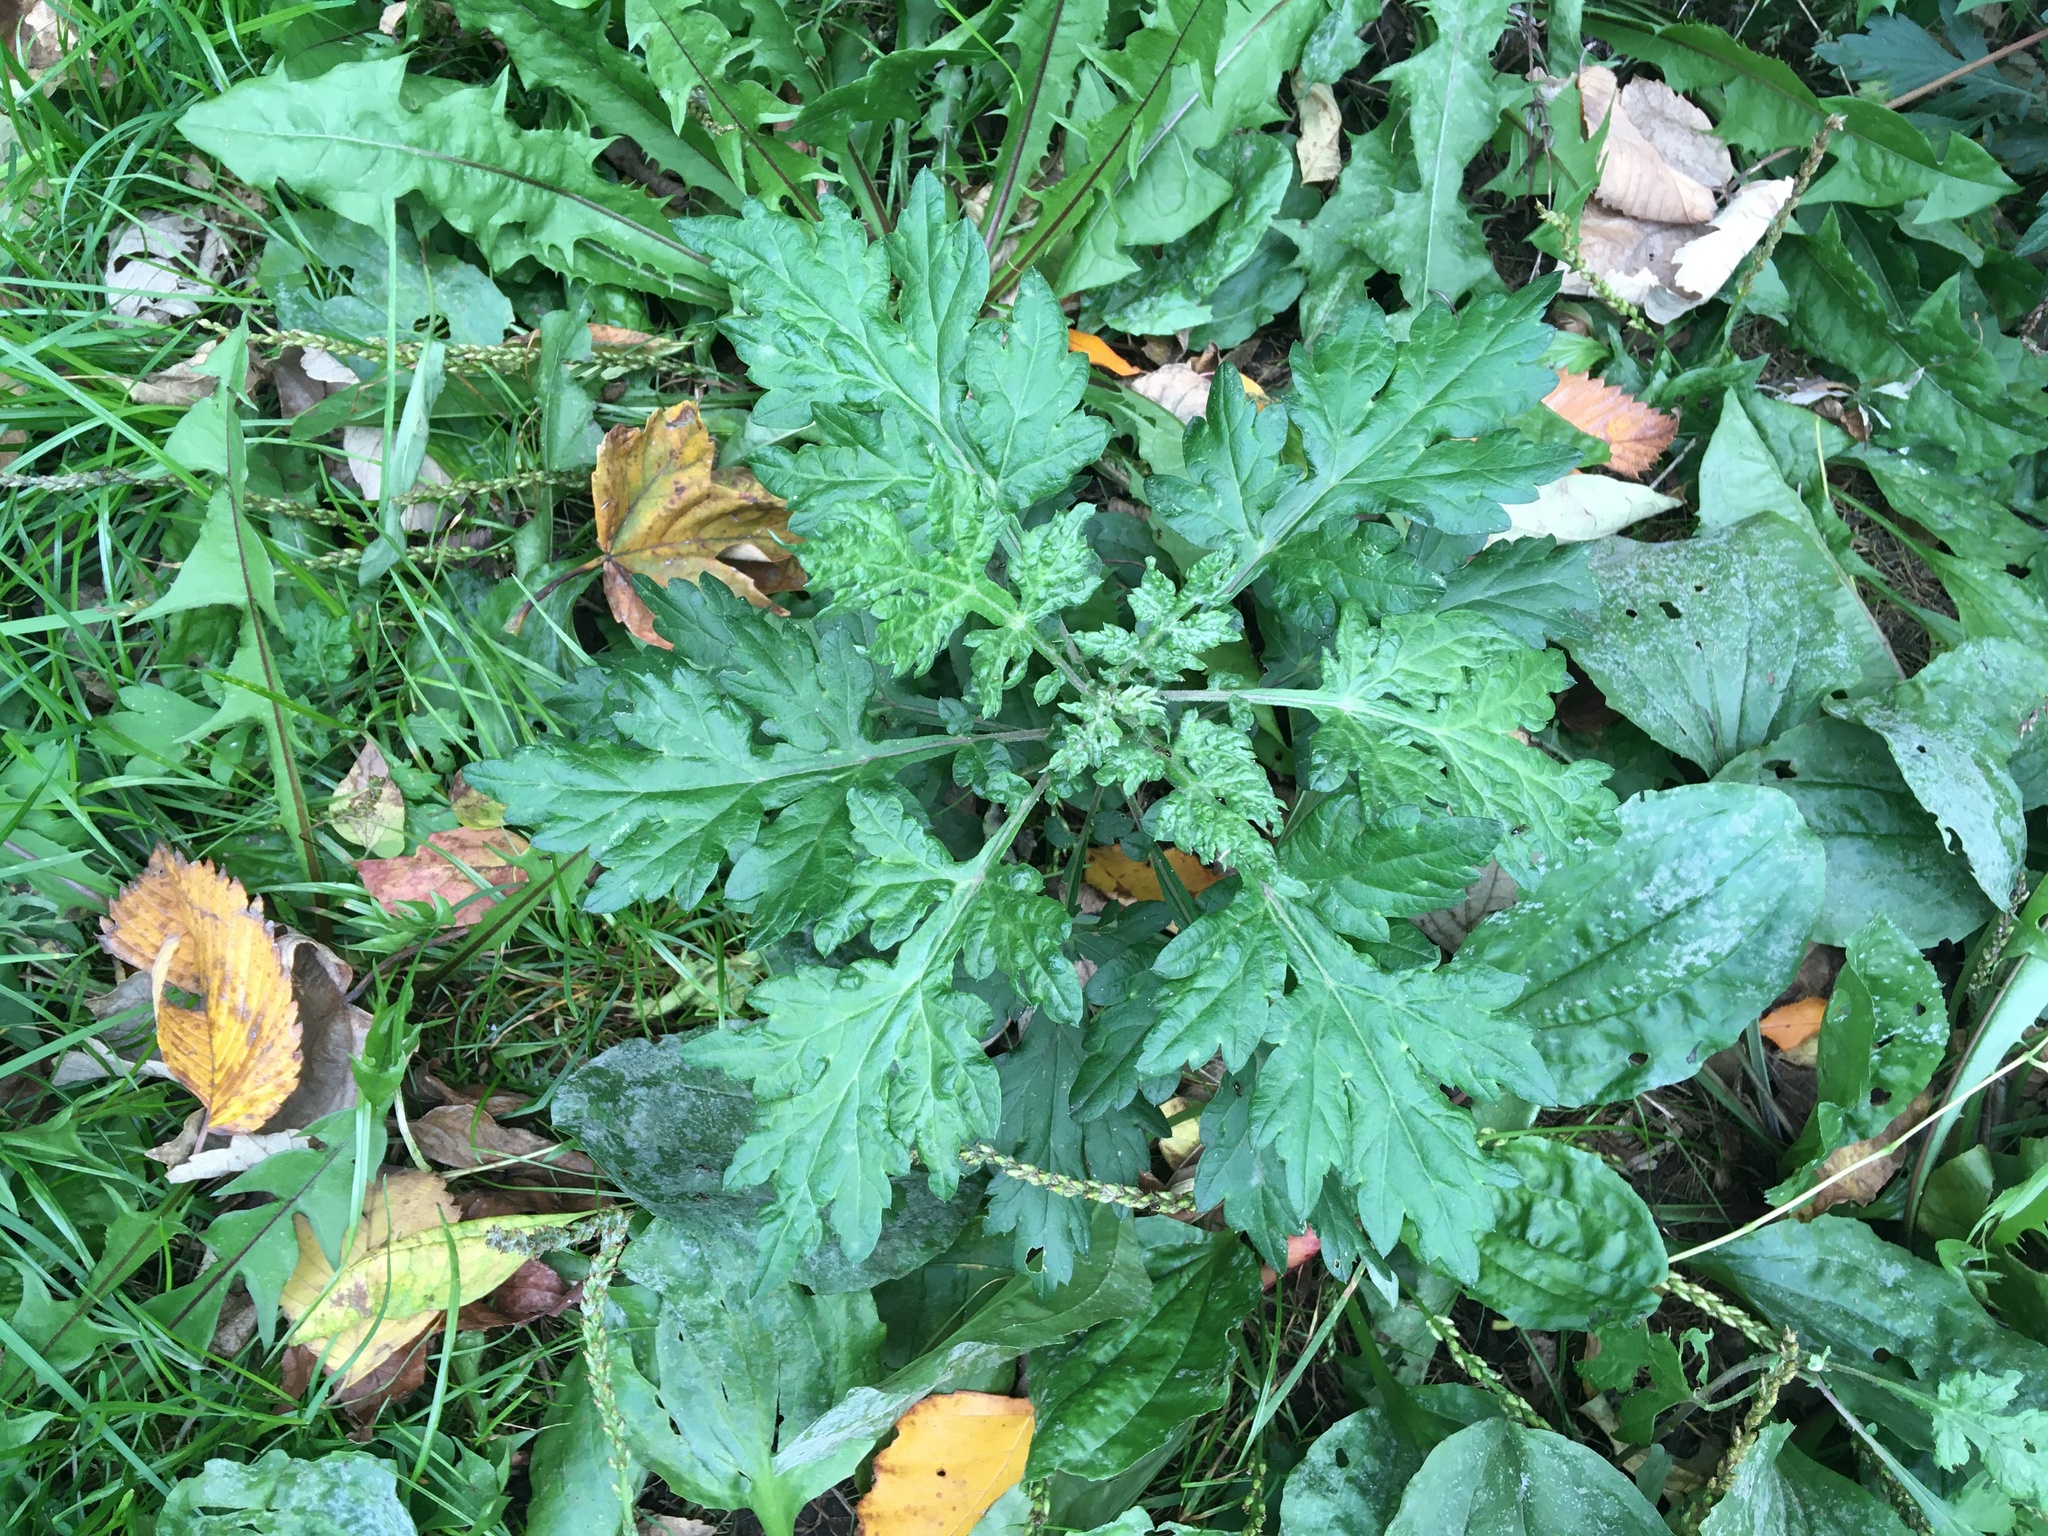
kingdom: Plantae
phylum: Tracheophyta
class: Magnoliopsida
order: Asterales
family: Asteraceae
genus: Artemisia
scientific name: Artemisia vulgaris
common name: Mugwort
